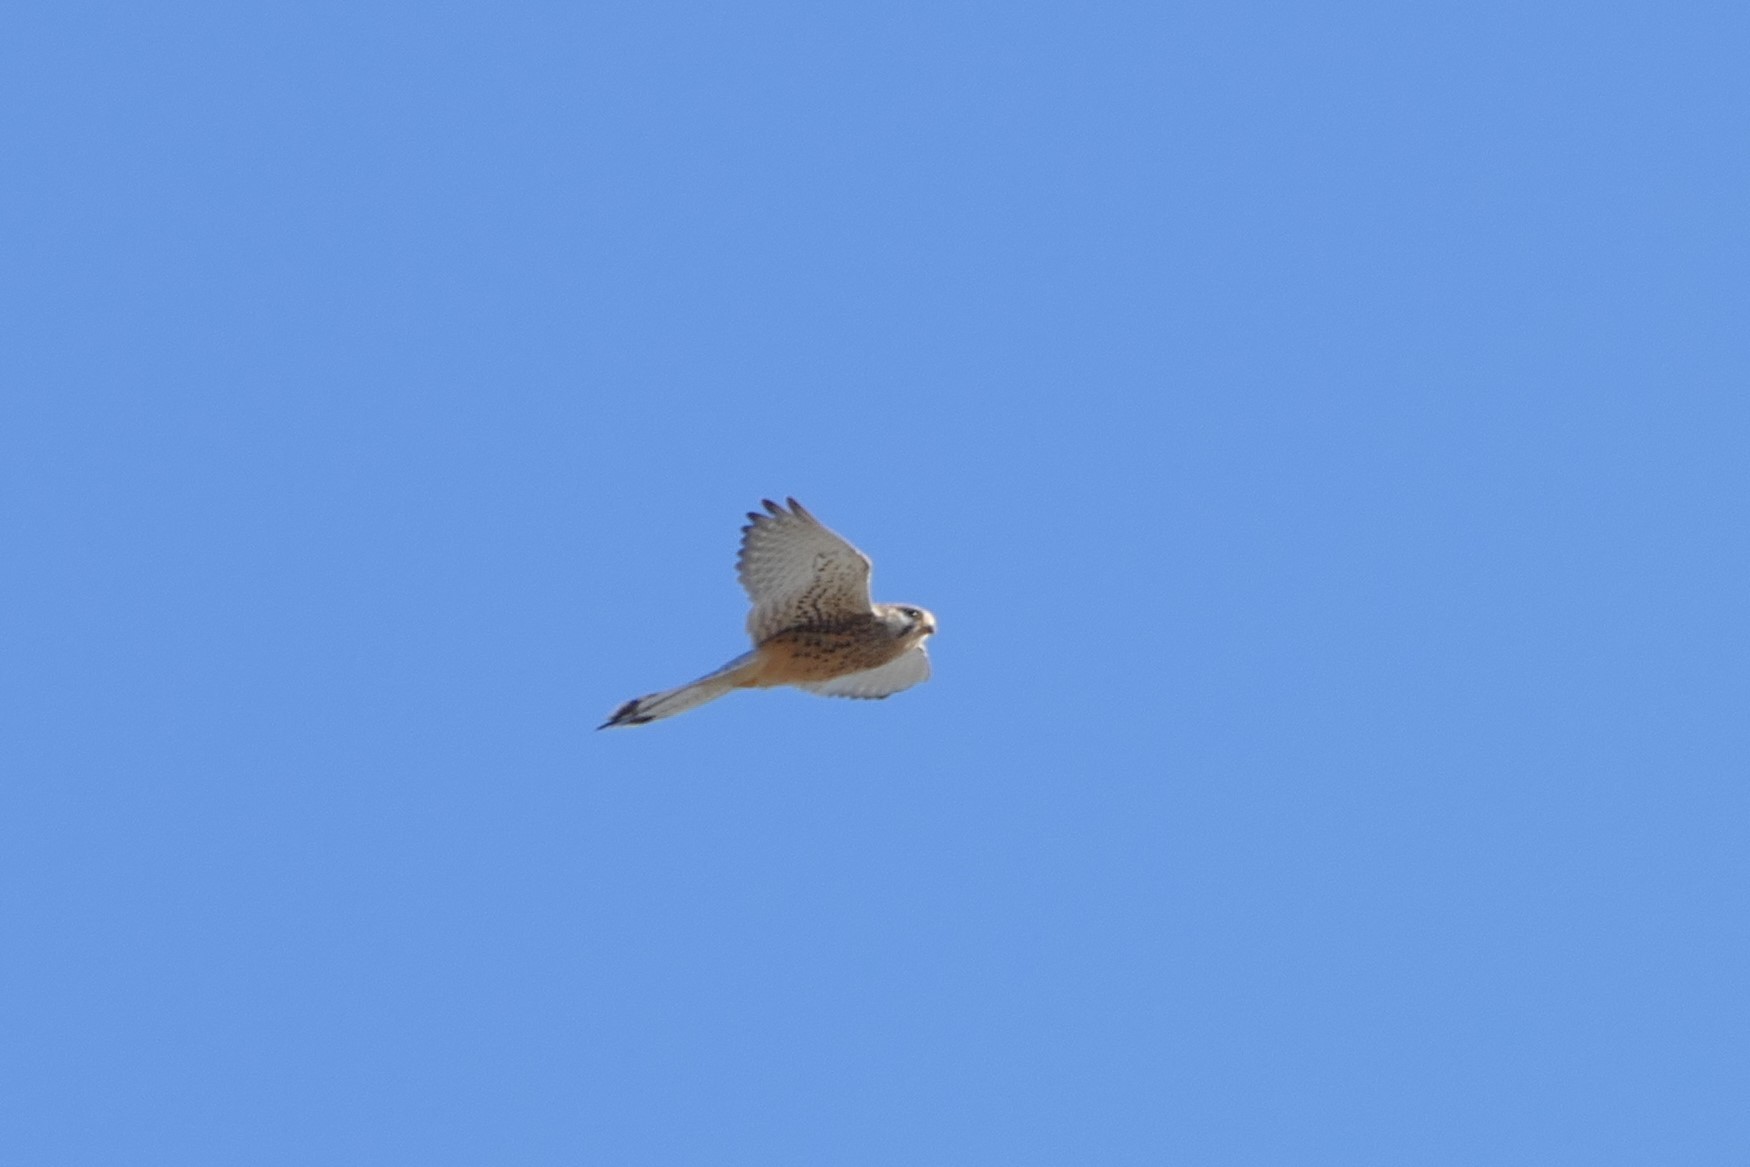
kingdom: Animalia
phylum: Chordata
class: Aves
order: Falconiformes
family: Falconidae
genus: Falco
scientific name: Falco tinnunculus
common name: Common kestrel
